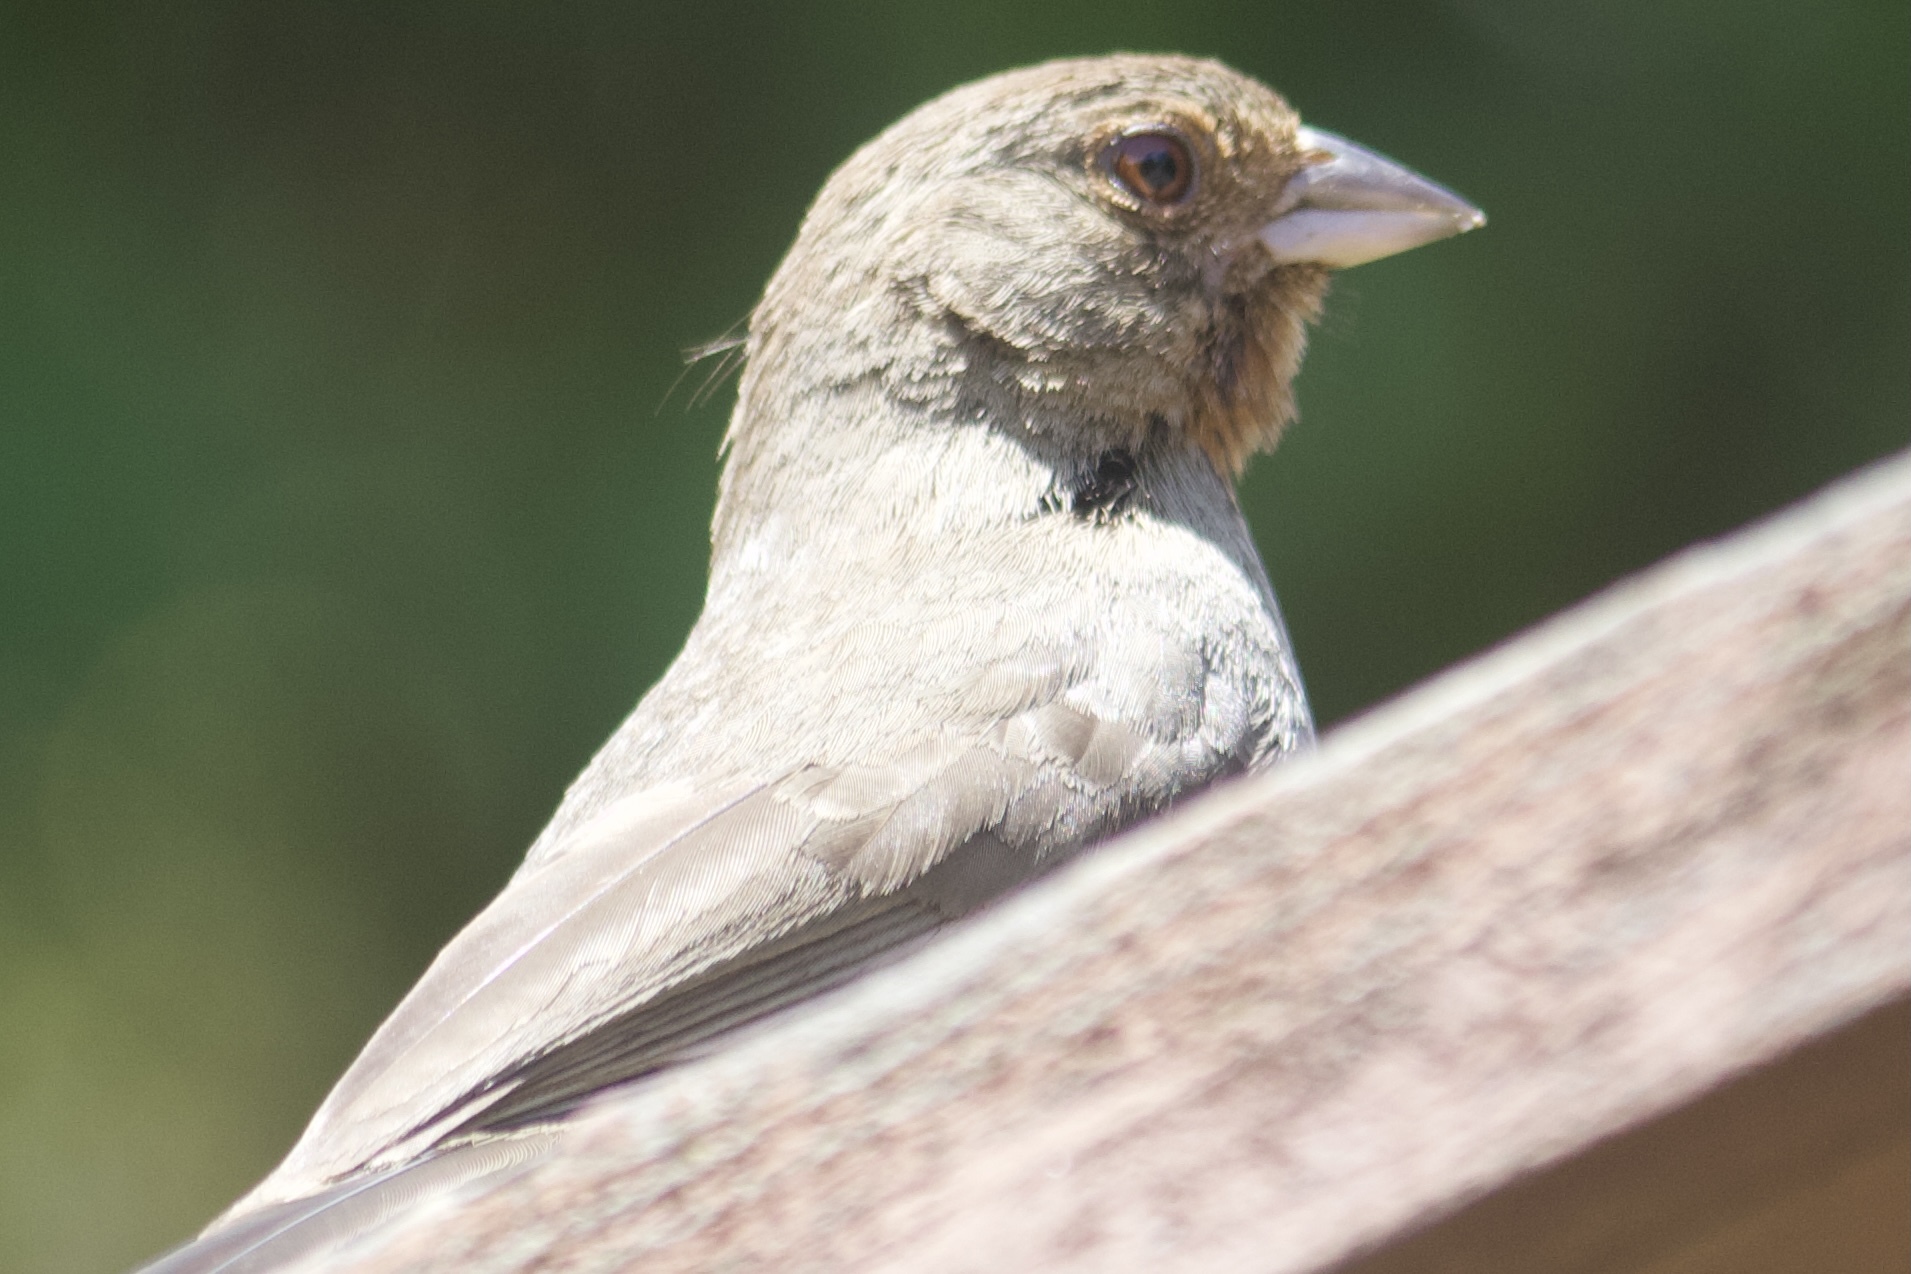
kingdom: Animalia
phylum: Chordata
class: Aves
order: Passeriformes
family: Passerellidae
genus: Melozone
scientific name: Melozone crissalis
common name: California towhee
